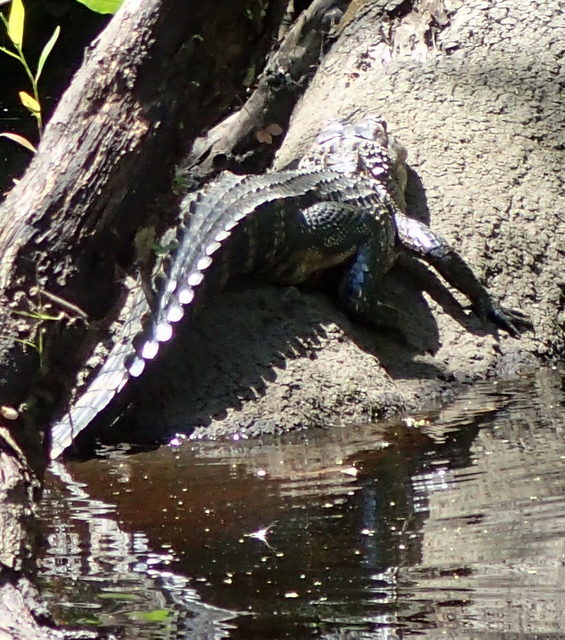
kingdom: Animalia
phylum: Chordata
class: Crocodylia
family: Alligatoridae
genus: Alligator
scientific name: Alligator mississippiensis
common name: American alligator
